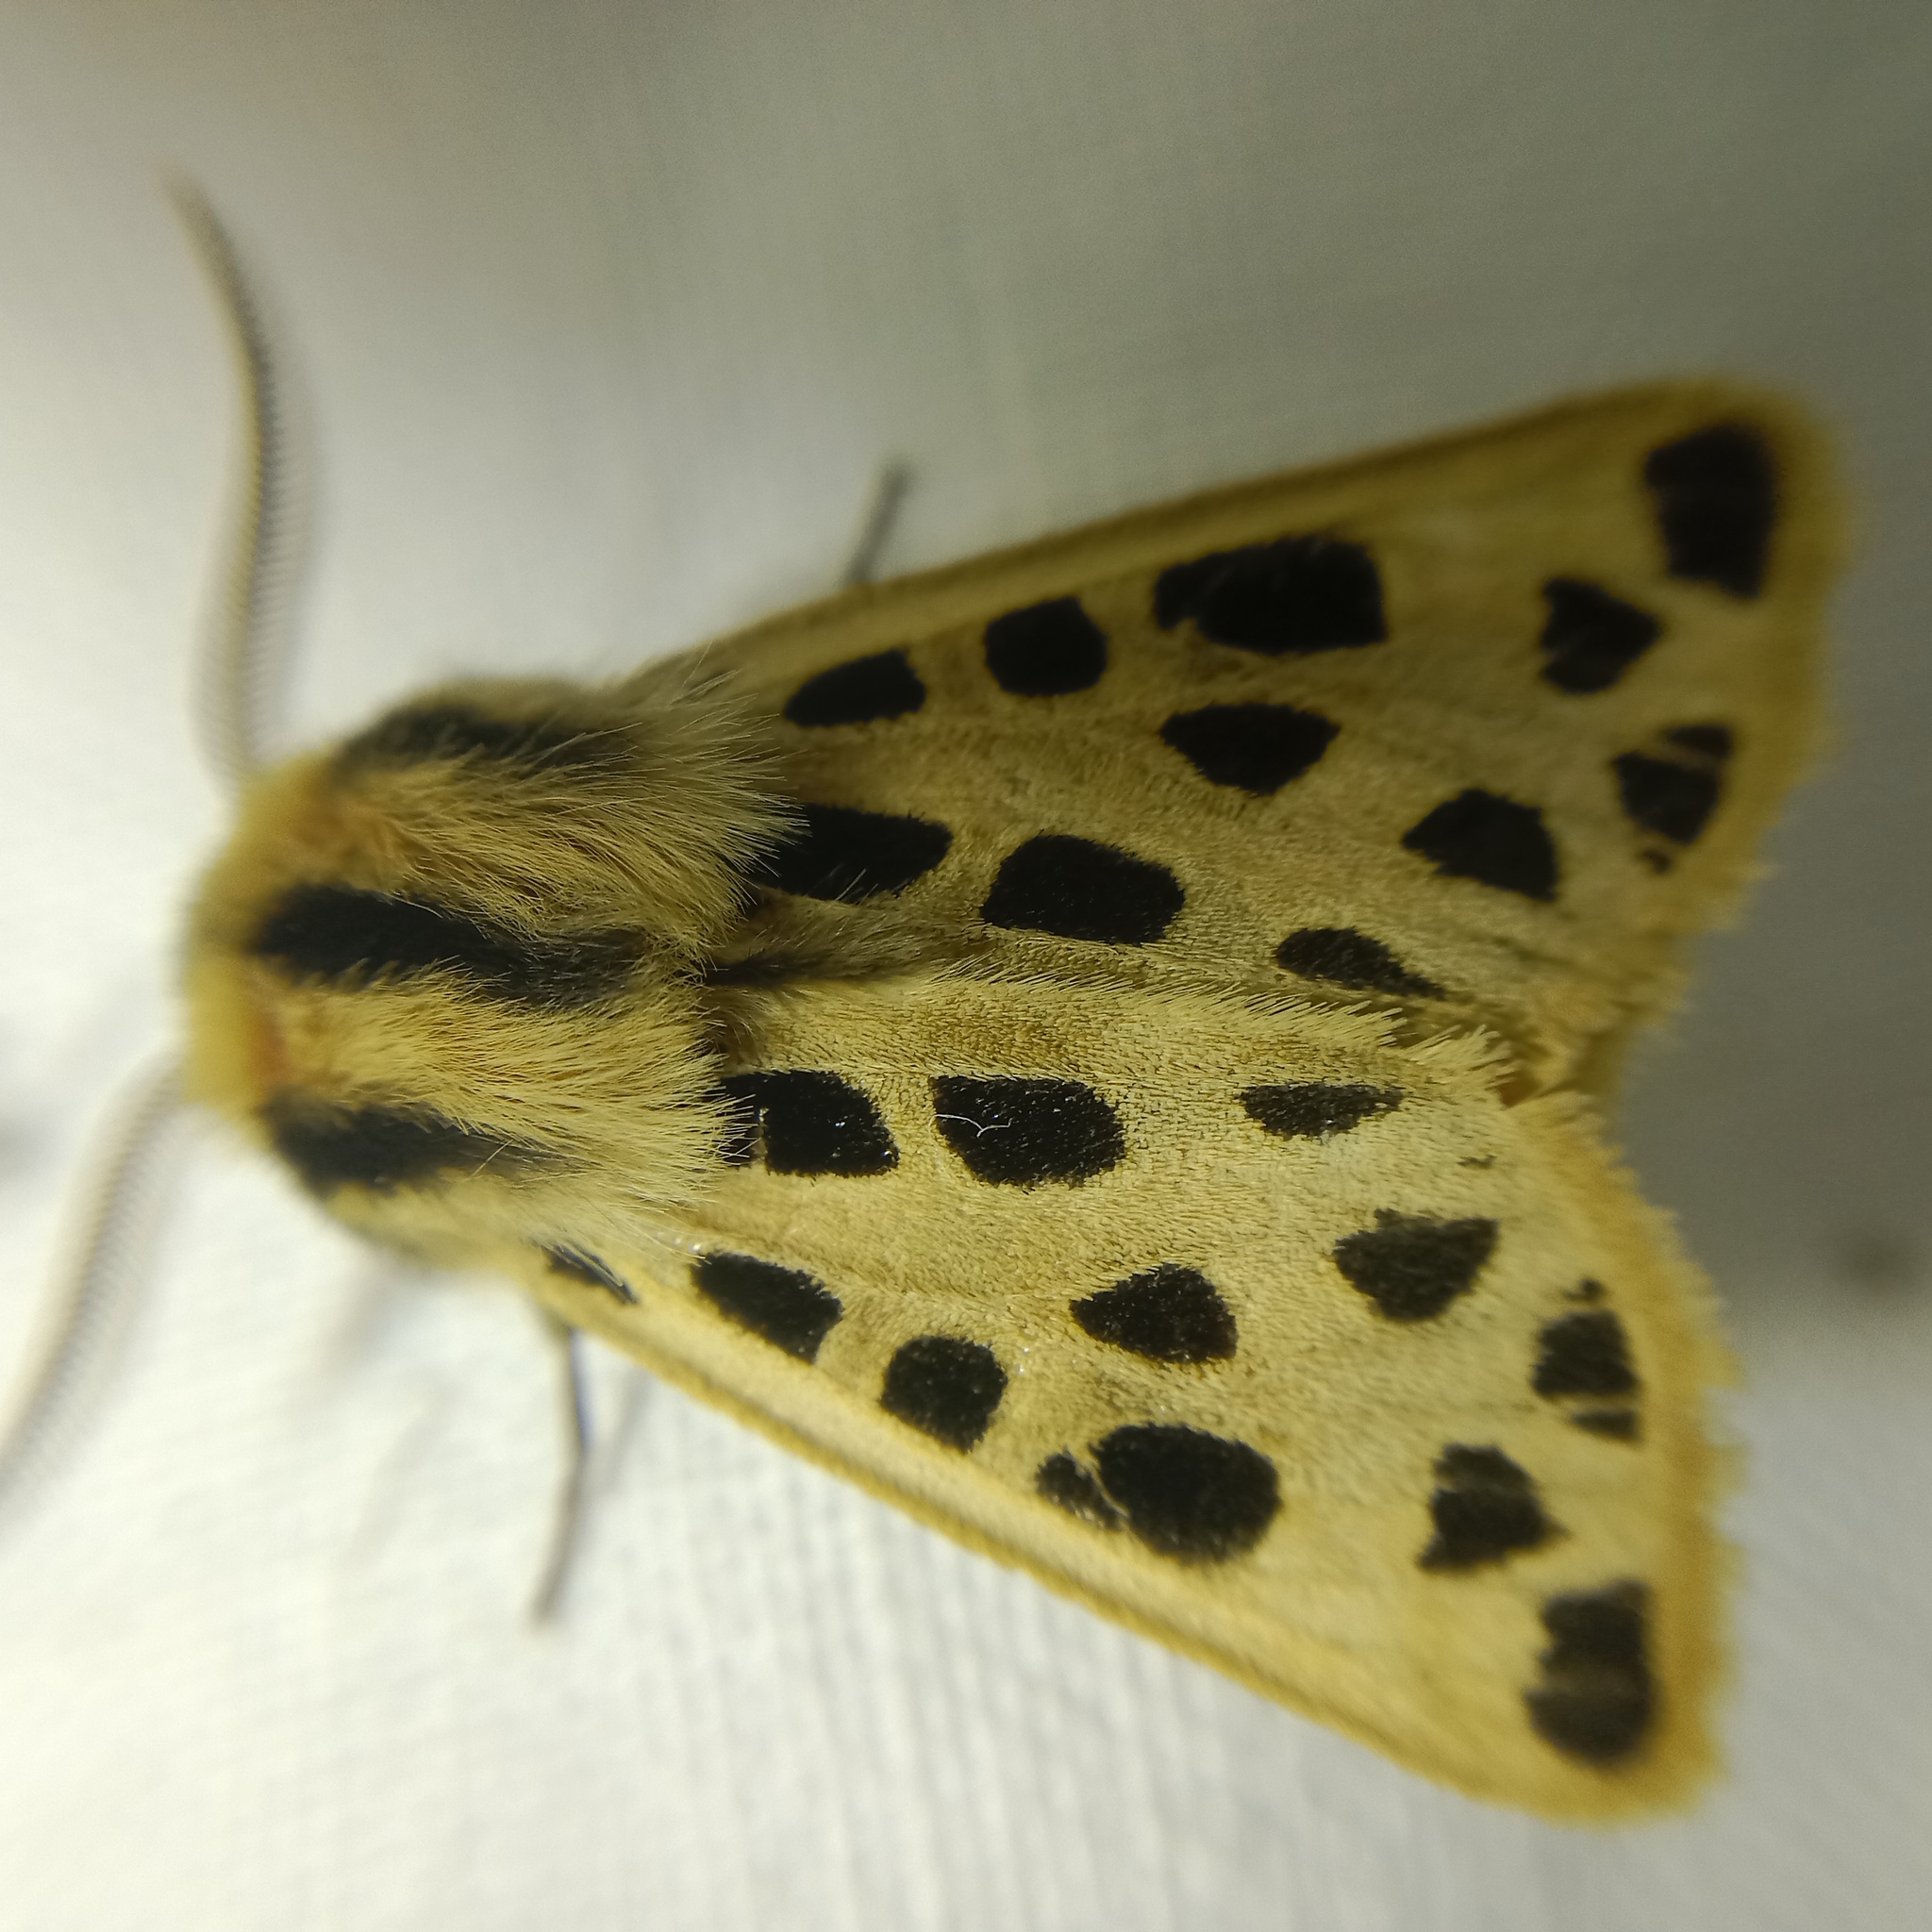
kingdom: Animalia
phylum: Arthropoda
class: Insecta
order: Lepidoptera
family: Erebidae
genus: Chelis
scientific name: Chelis maculosa
